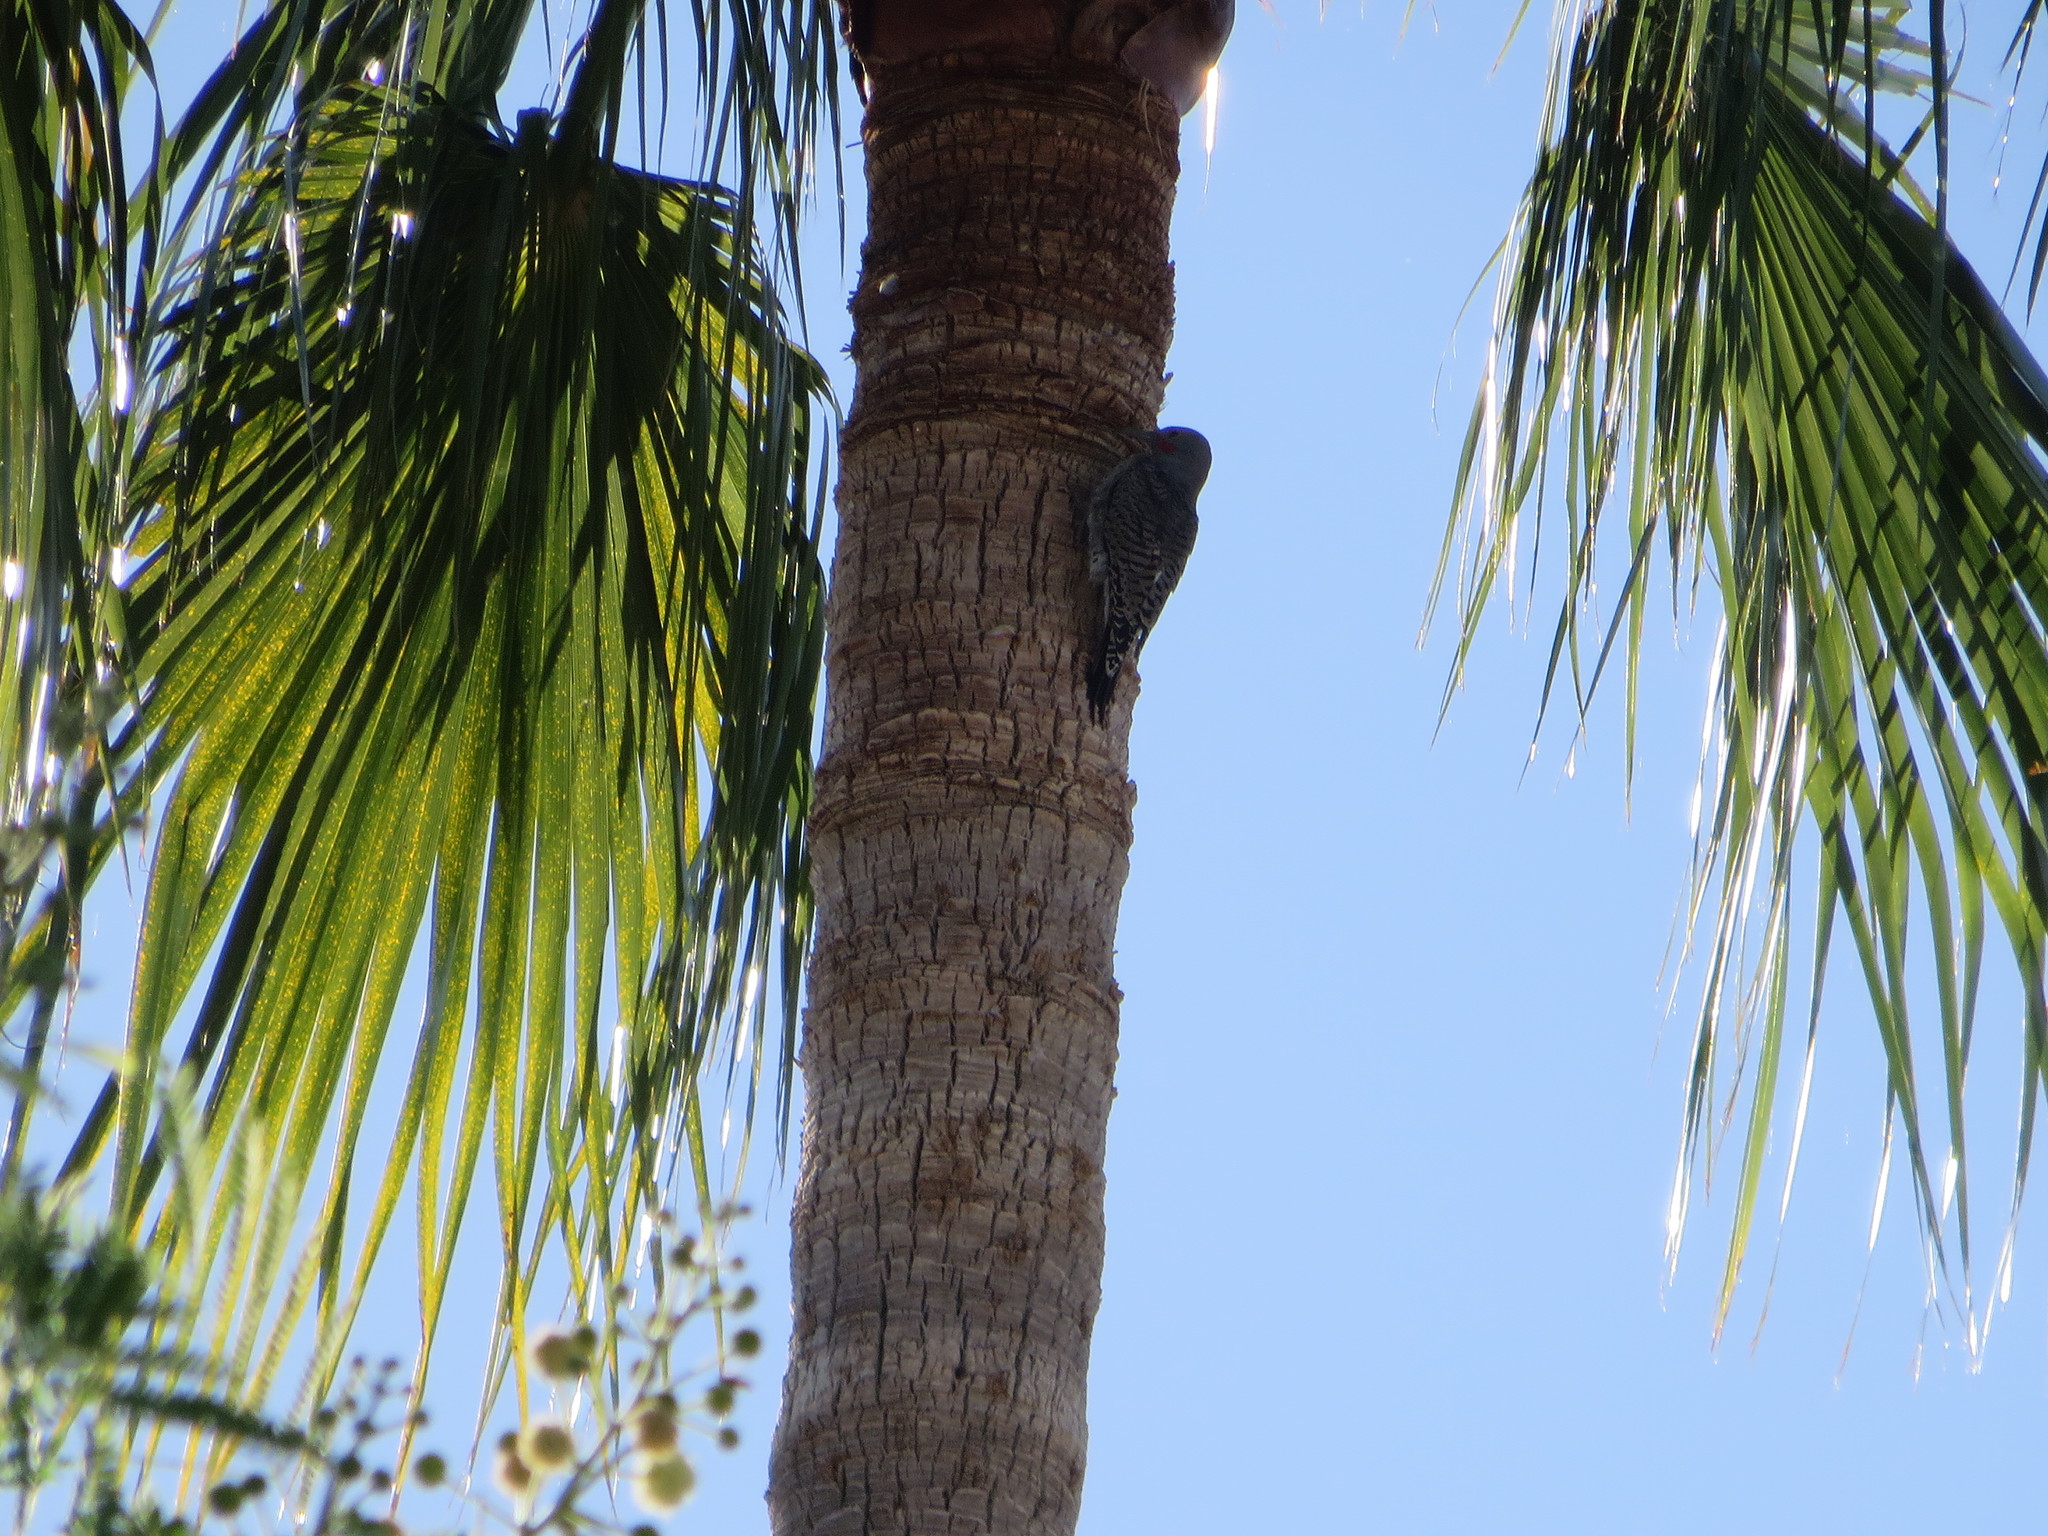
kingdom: Animalia
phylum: Chordata
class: Aves
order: Piciformes
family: Picidae
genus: Colaptes
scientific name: Colaptes chrysoides
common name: Gilded flicker
